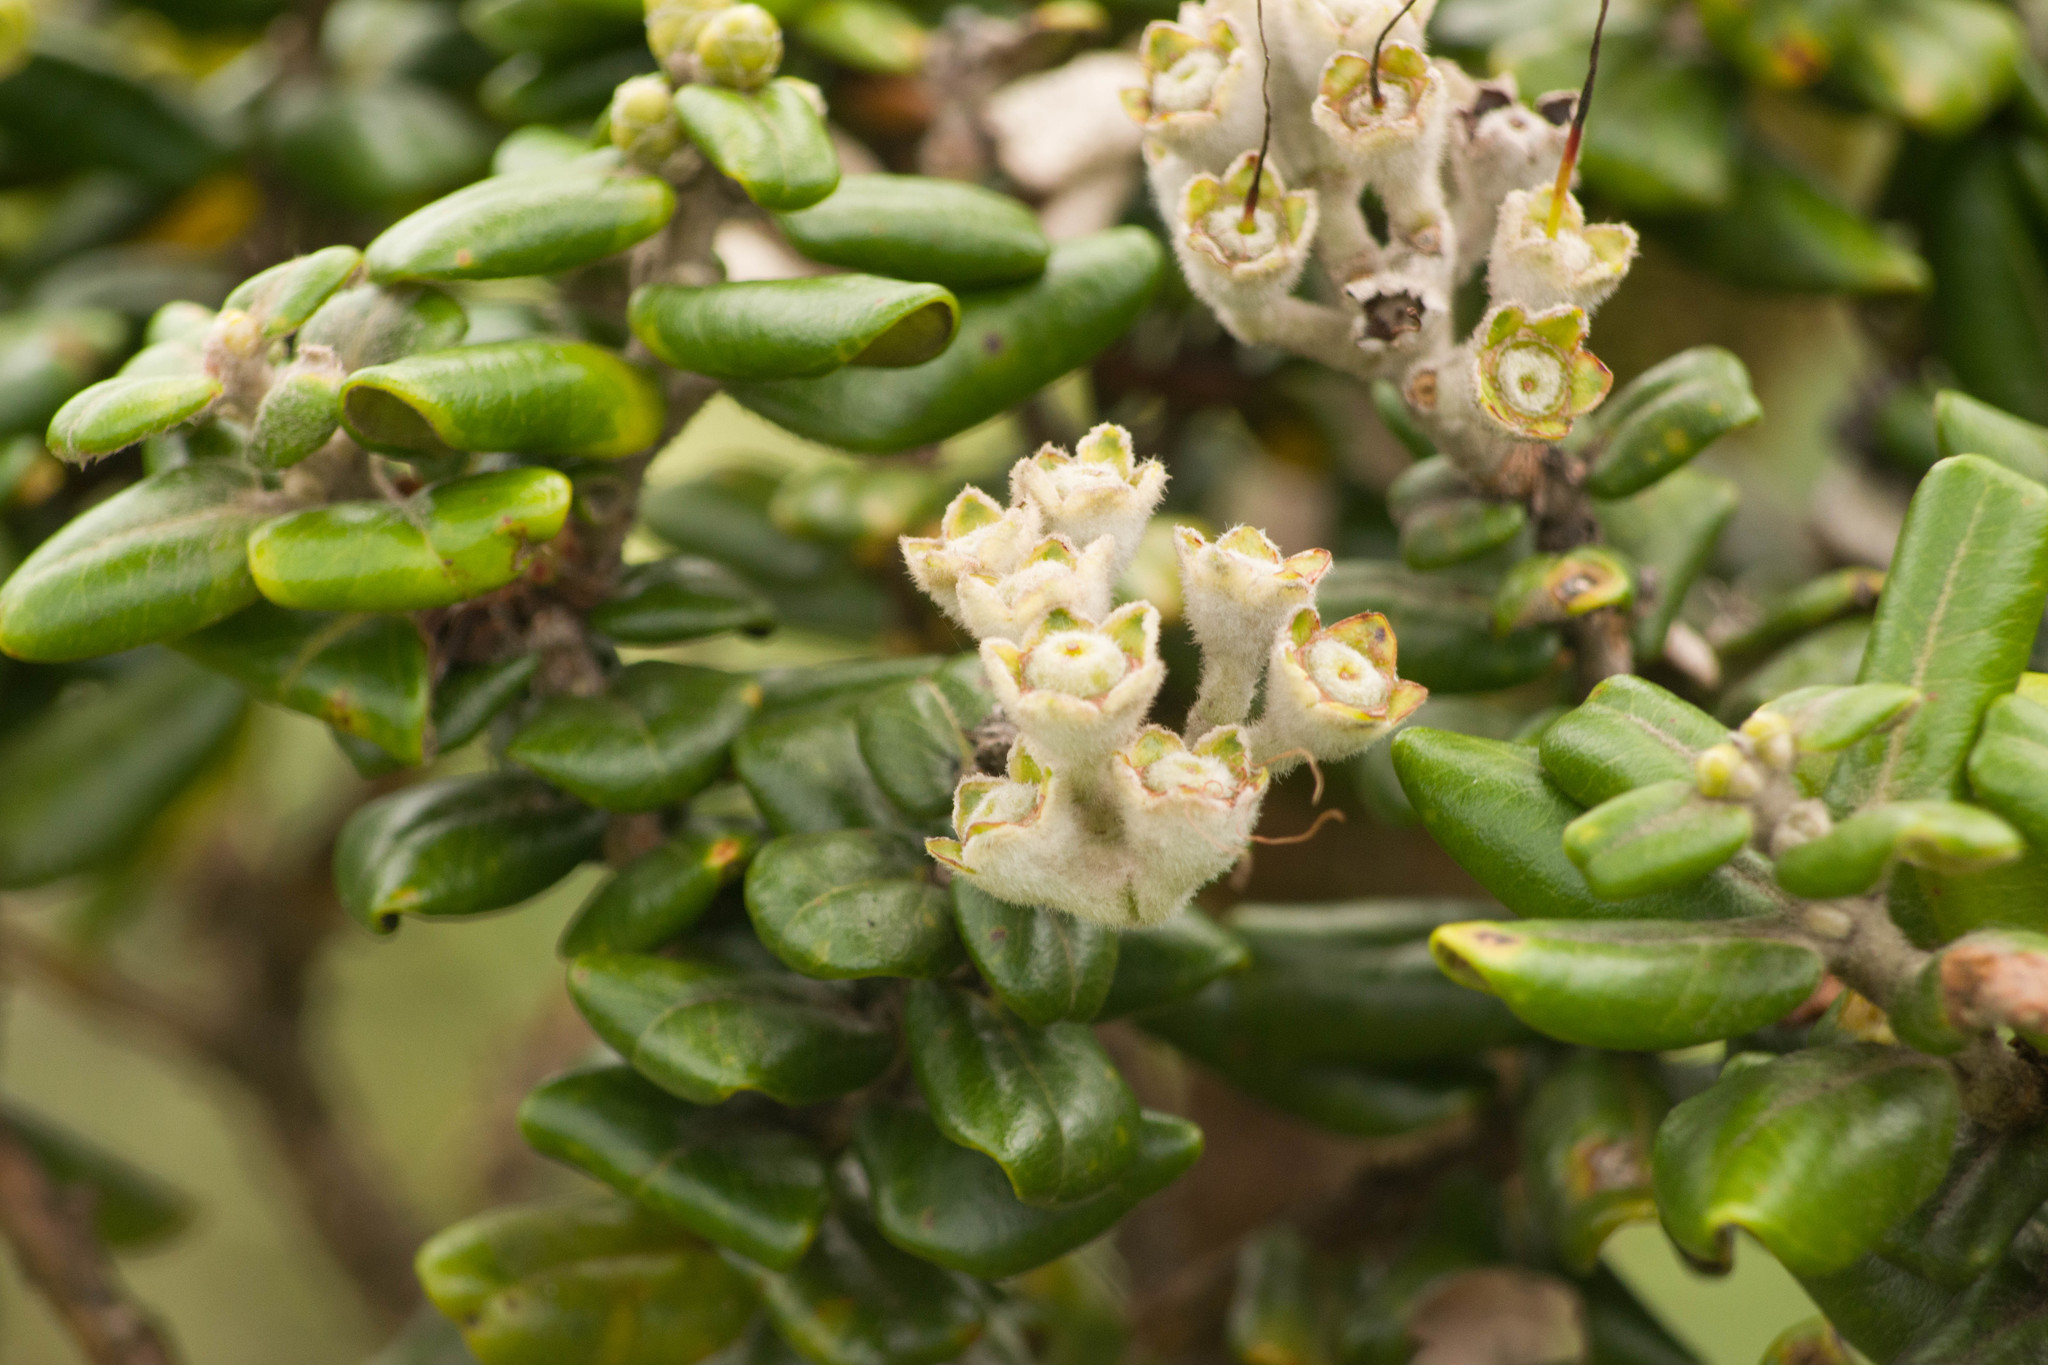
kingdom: Plantae
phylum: Tracheophyta
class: Magnoliopsida
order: Myrtales
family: Myrtaceae
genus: Metrosideros
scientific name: Metrosideros polymorpha
